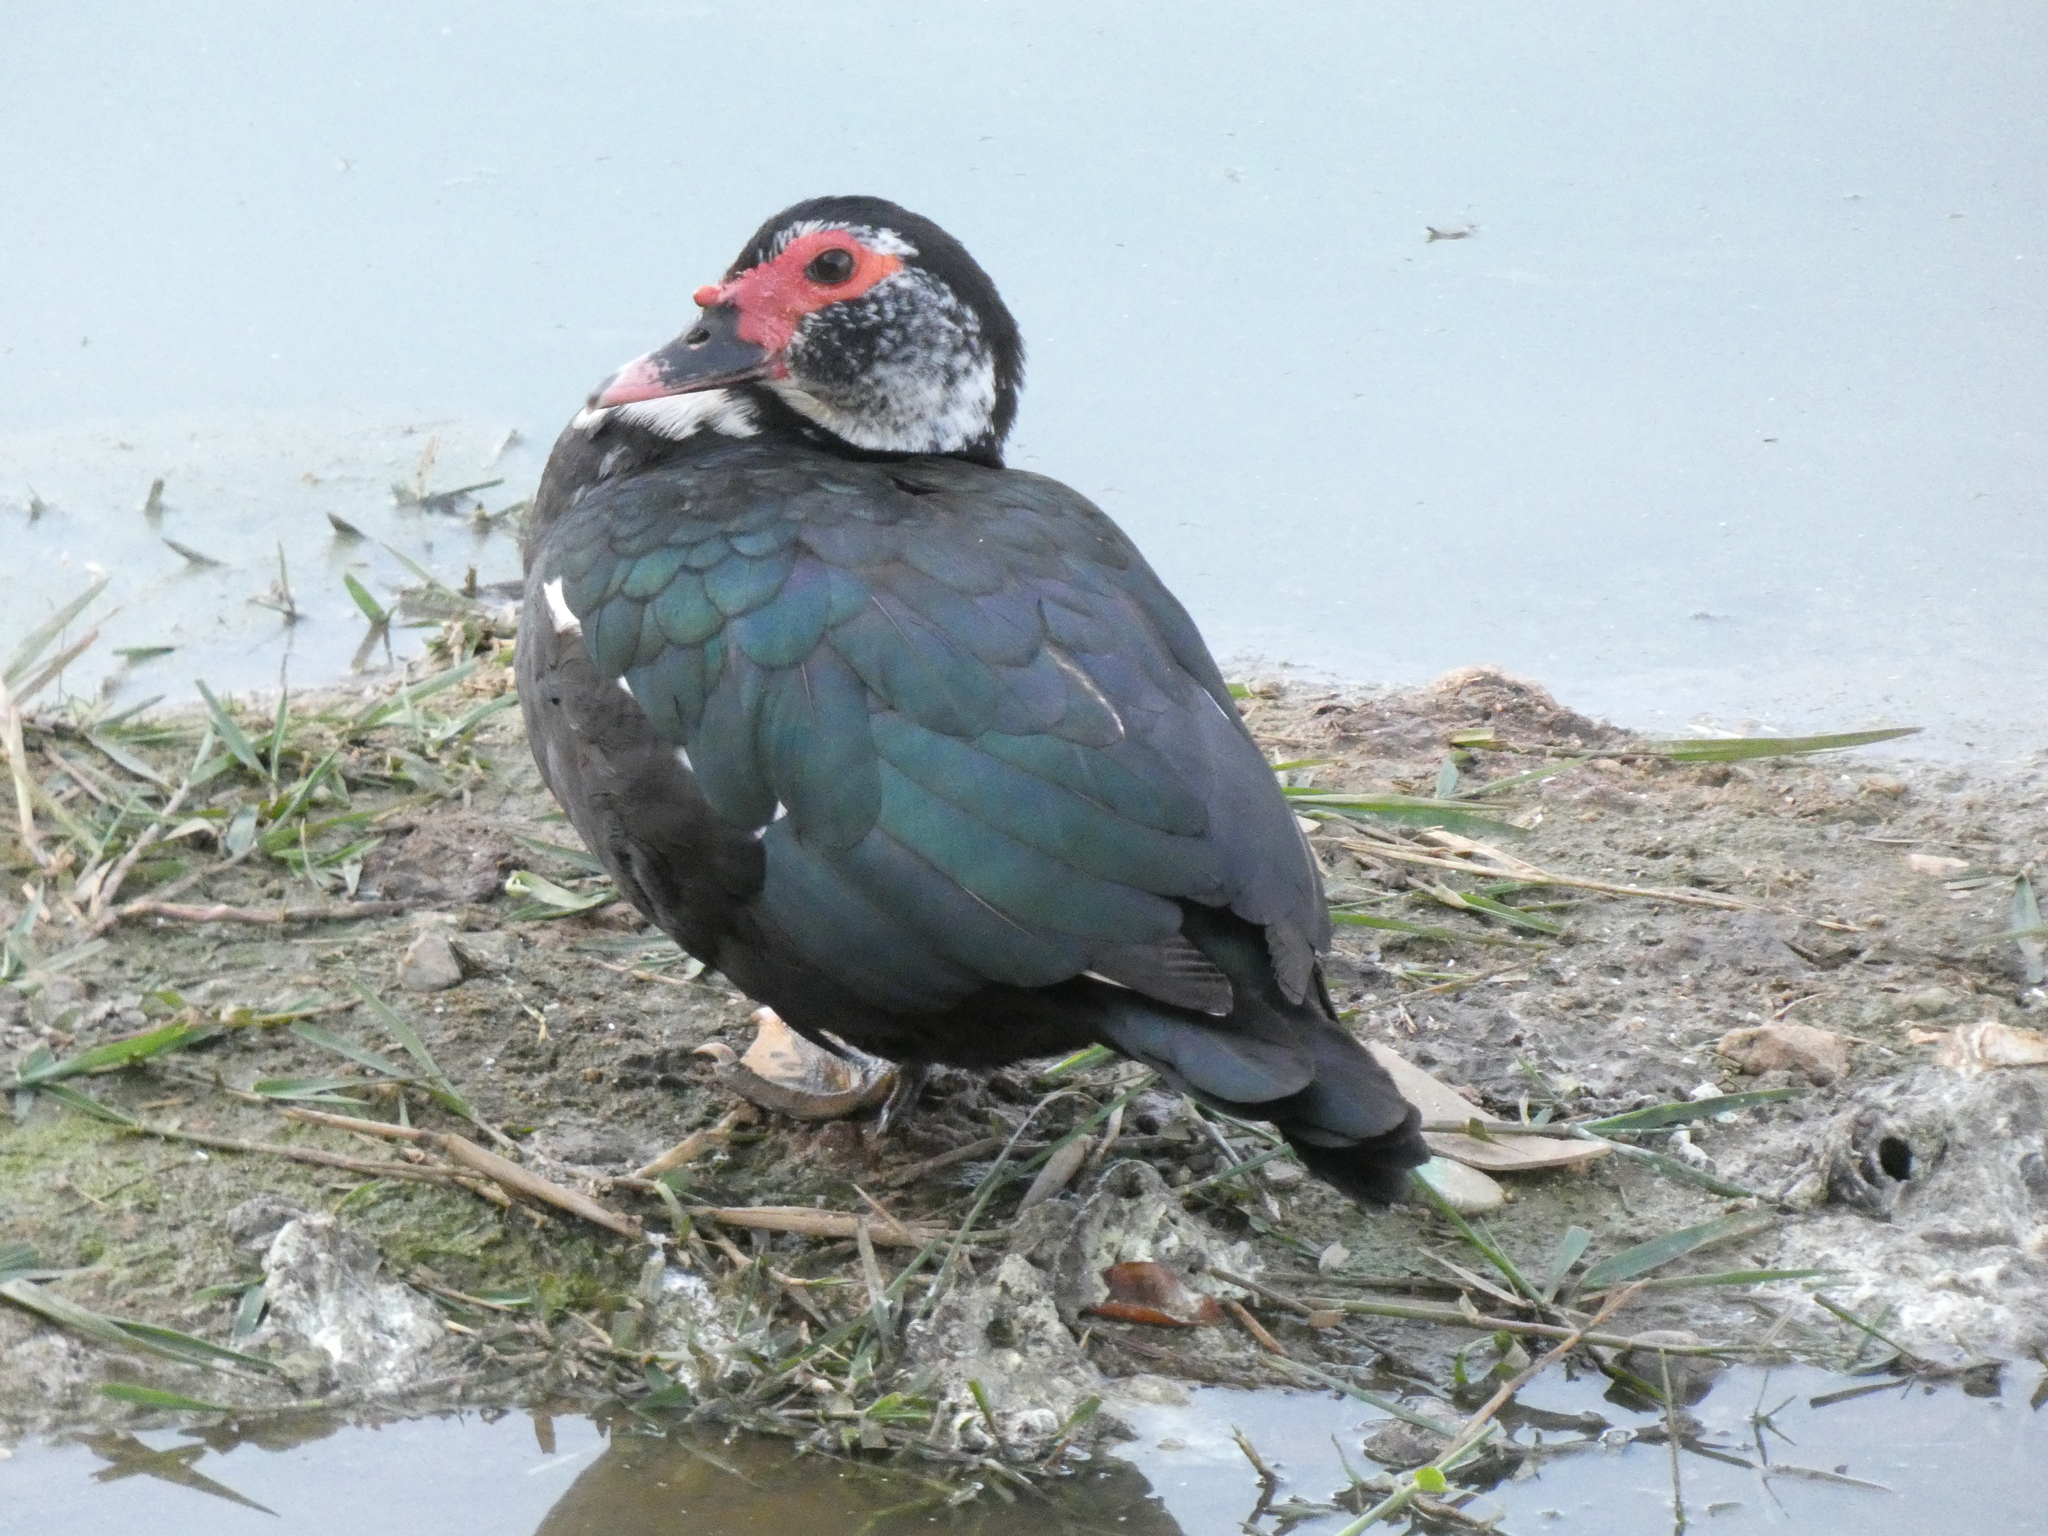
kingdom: Animalia
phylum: Chordata
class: Aves
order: Anseriformes
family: Anatidae
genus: Cairina
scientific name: Cairina moschata
